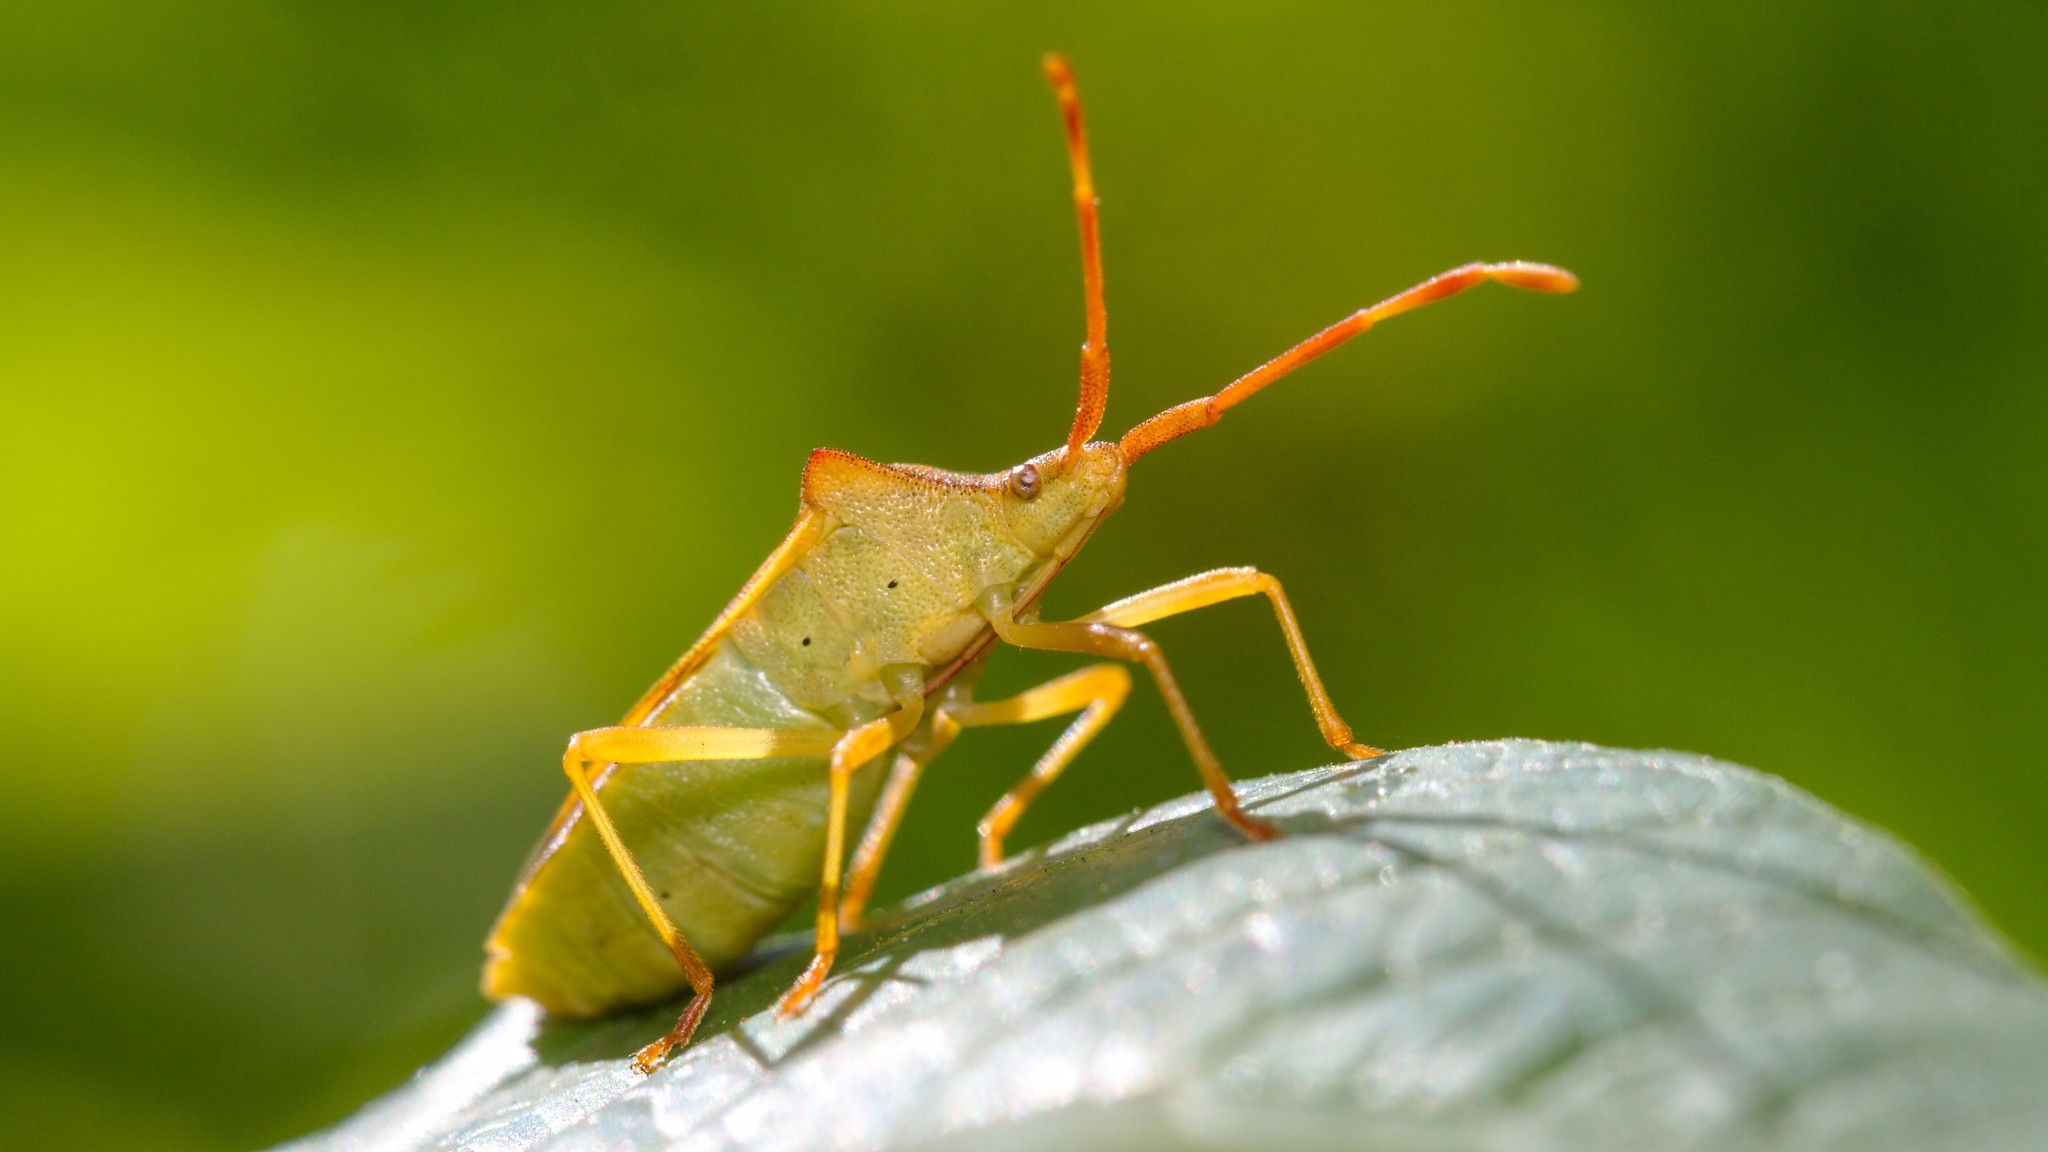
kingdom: Animalia
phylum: Arthropoda
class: Insecta
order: Hemiptera
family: Coreidae
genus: Gonocerus
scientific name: Gonocerus acuteangulatus
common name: Box bug
